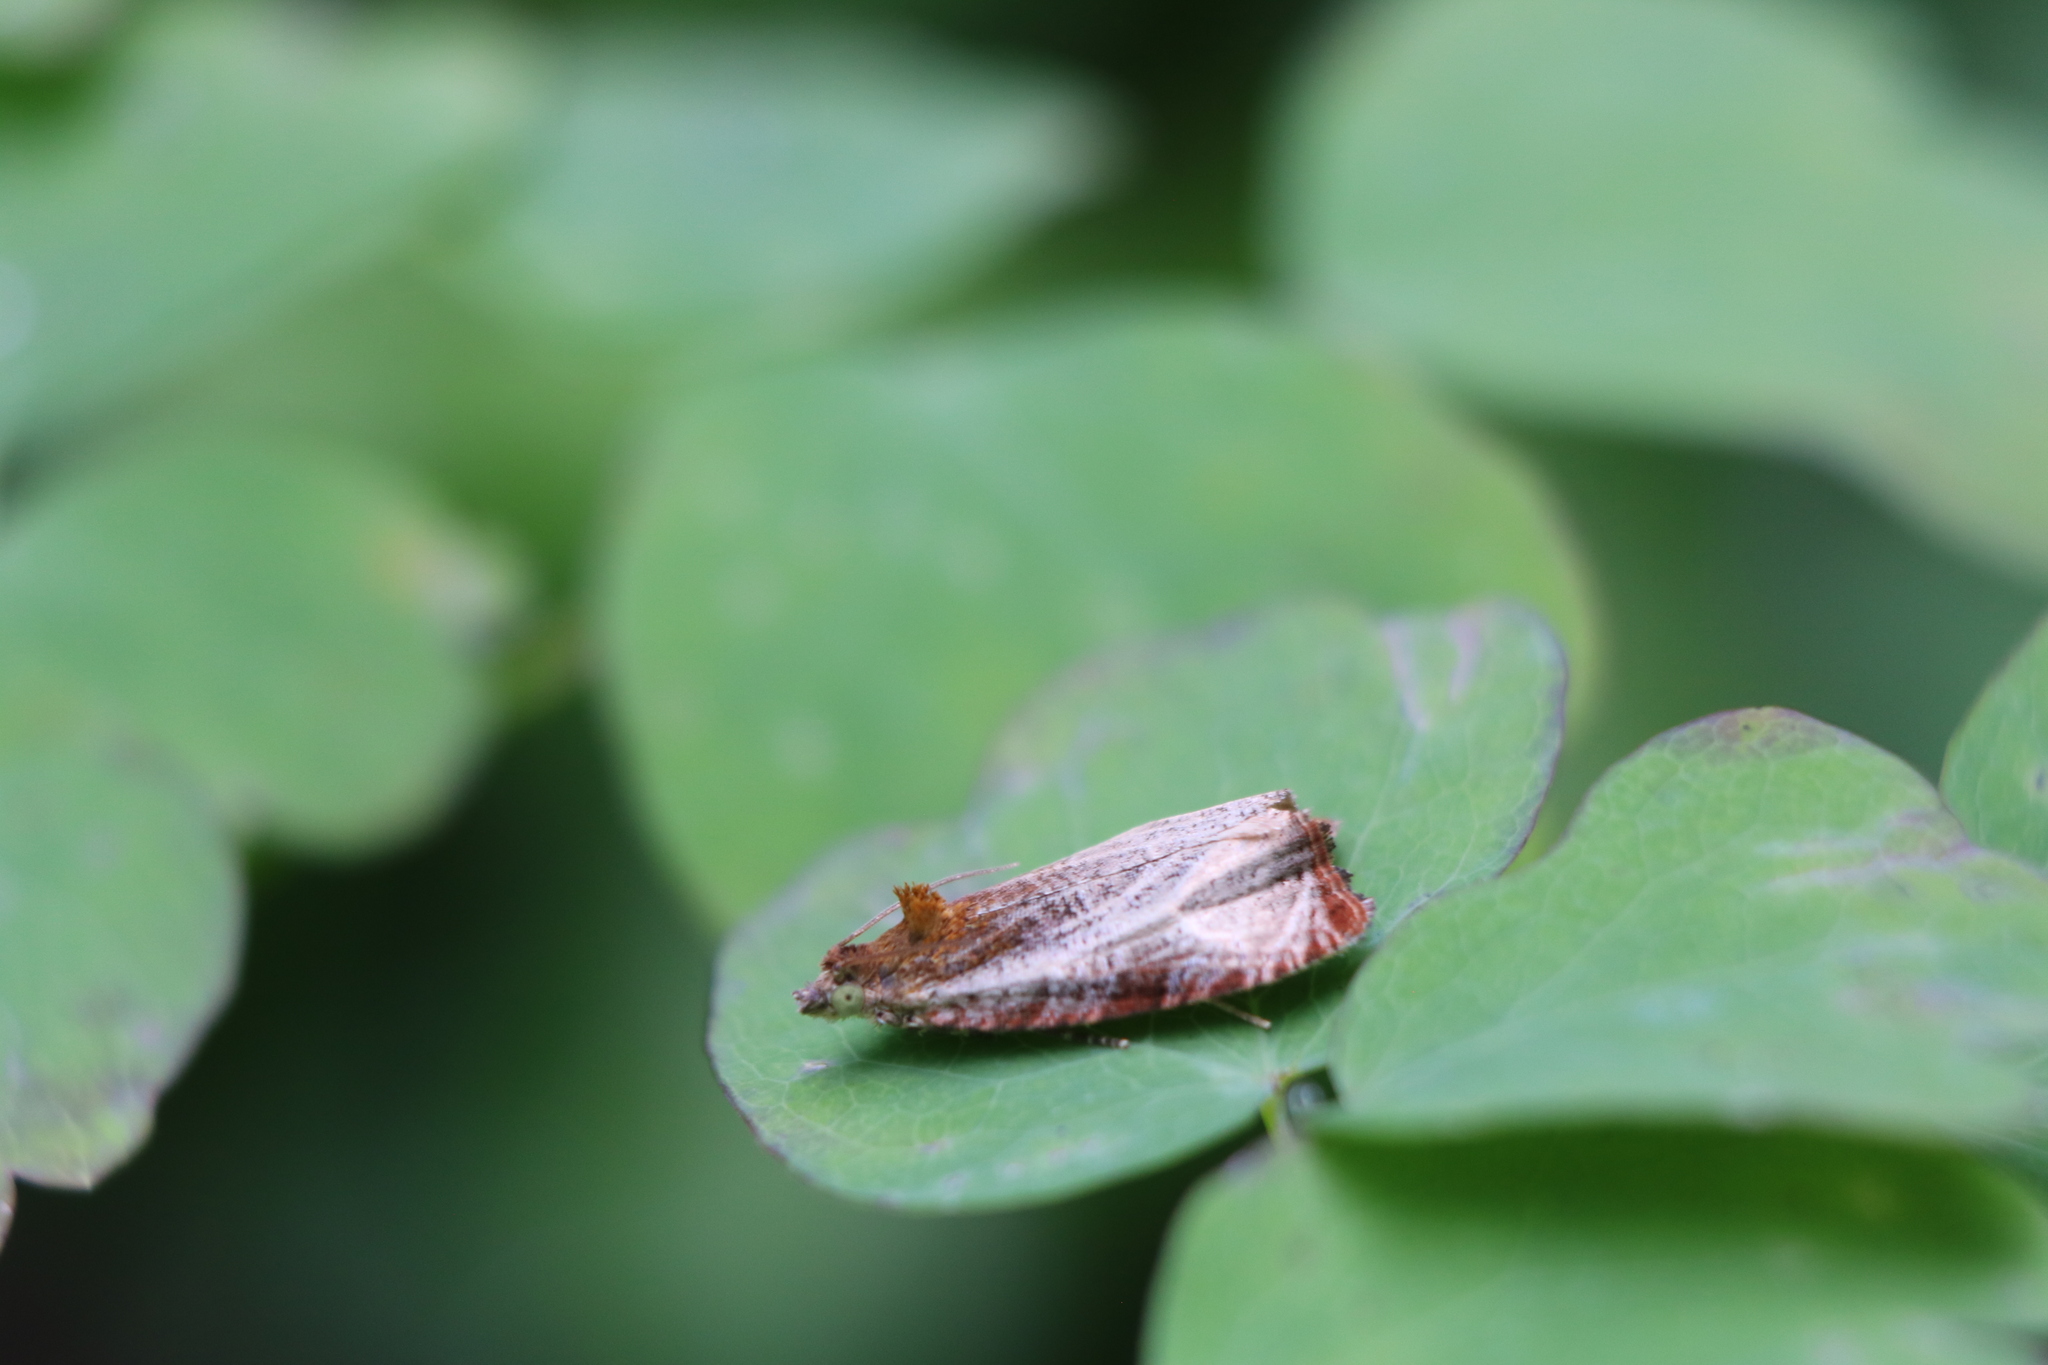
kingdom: Animalia
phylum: Arthropoda
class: Insecta
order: Lepidoptera
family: Tortricidae
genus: Olethreutes
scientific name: Olethreutes quadrifidum
